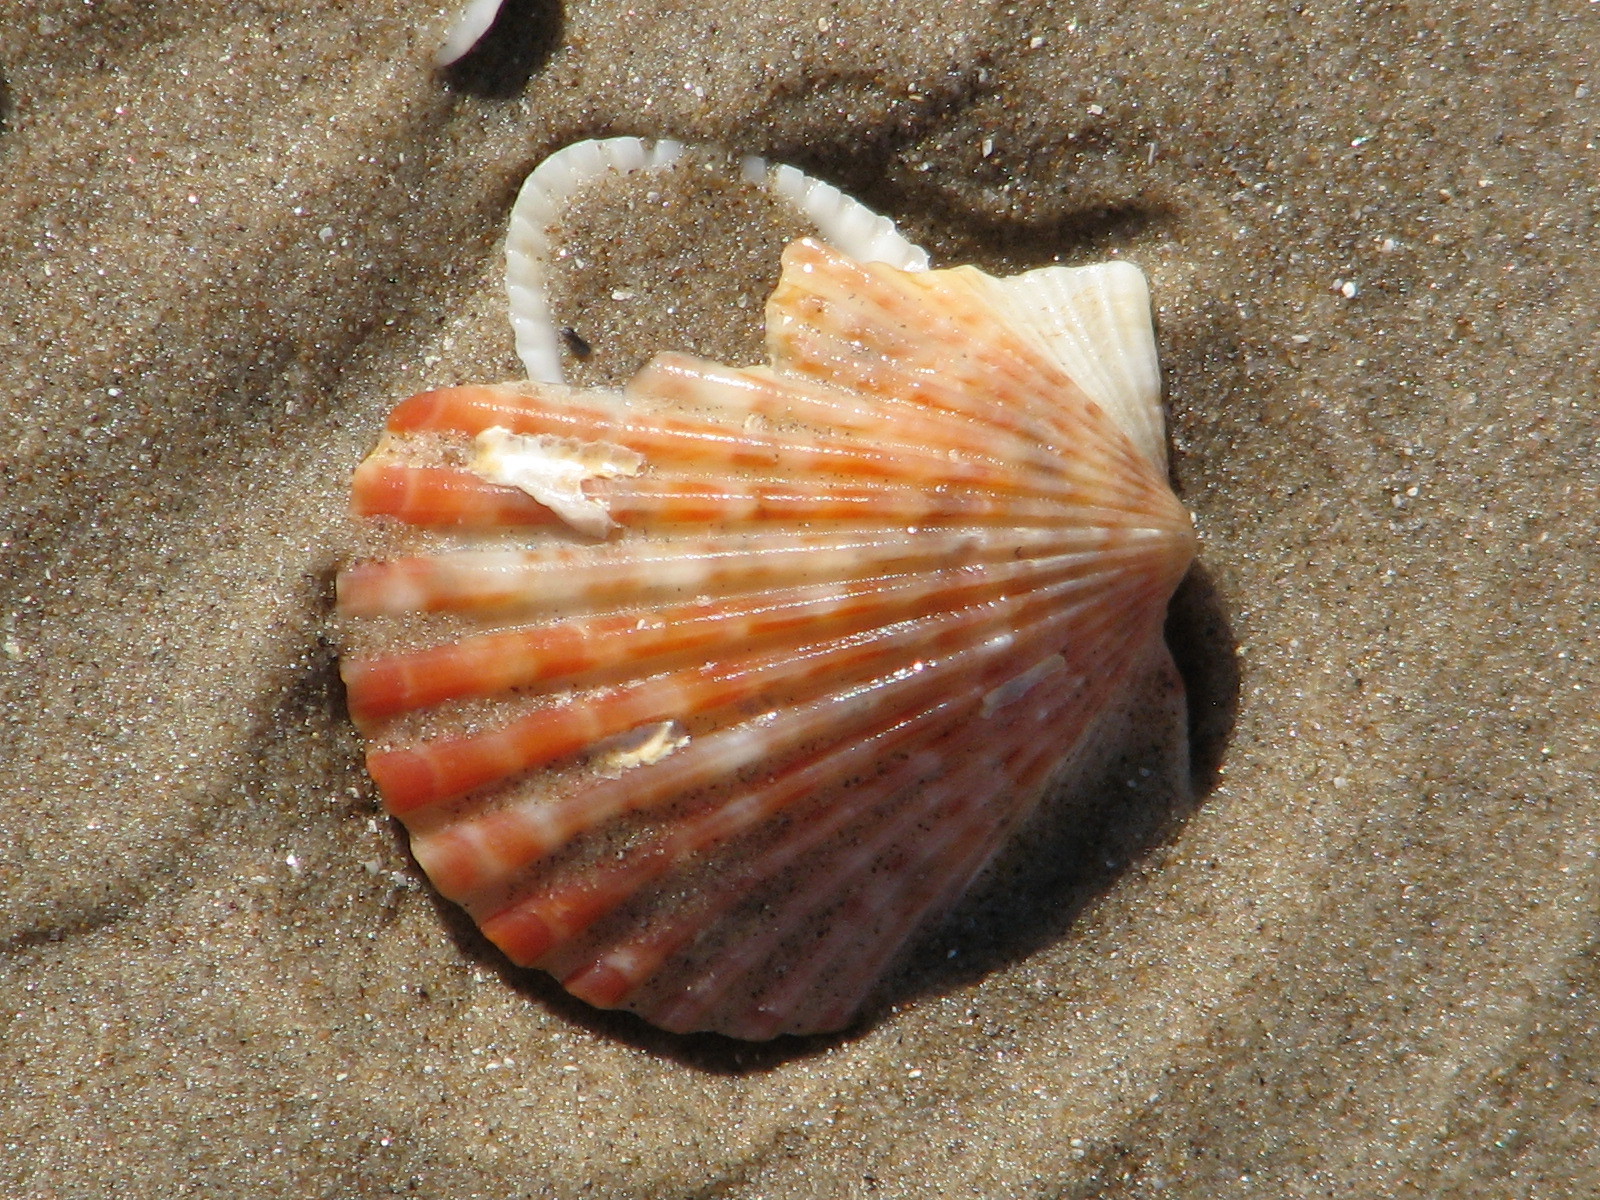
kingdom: Animalia
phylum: Mollusca
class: Bivalvia
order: Pectinida
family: Pectinidae
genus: Argopecten
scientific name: Argopecten irradians
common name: Atlantic bay scallop
